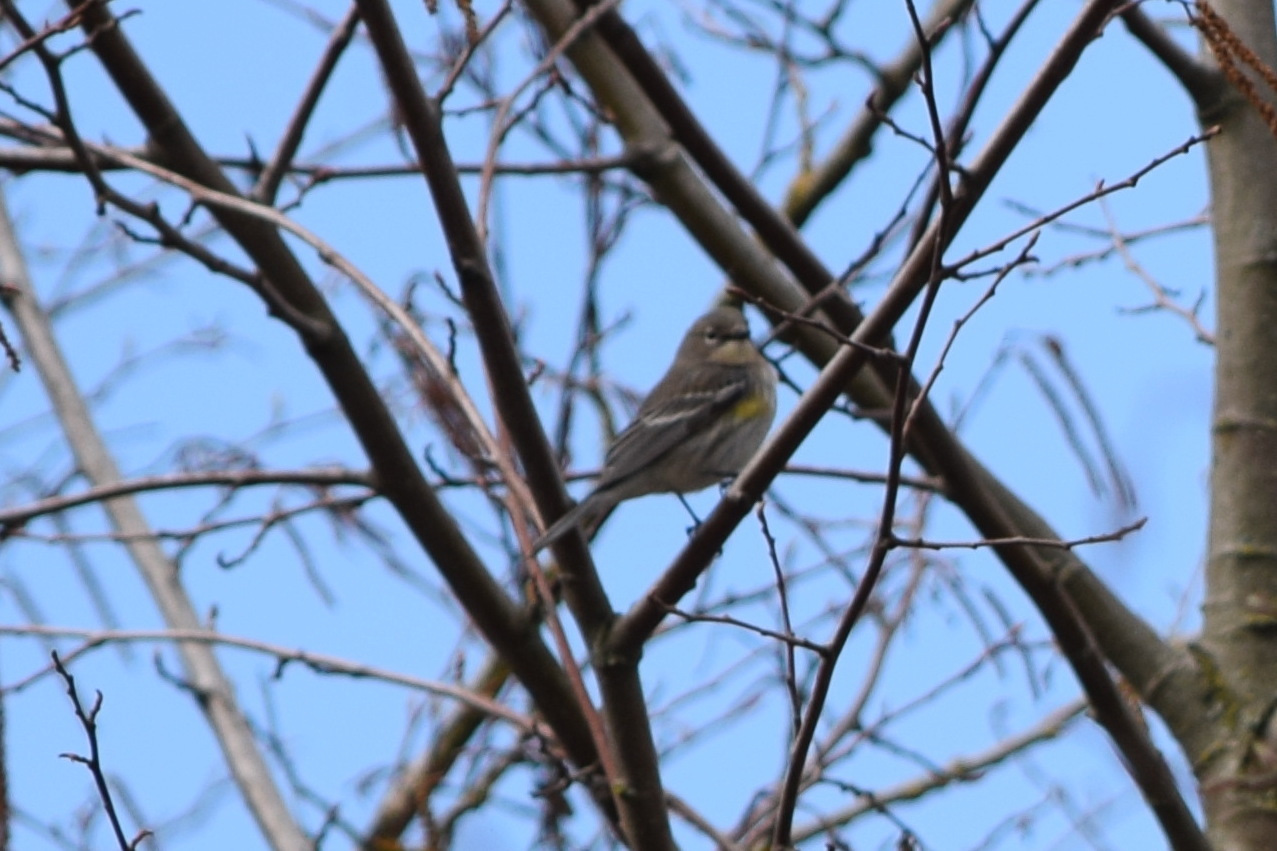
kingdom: Animalia
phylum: Chordata
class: Aves
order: Passeriformes
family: Parulidae
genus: Setophaga
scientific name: Setophaga coronata
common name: Myrtle warbler
